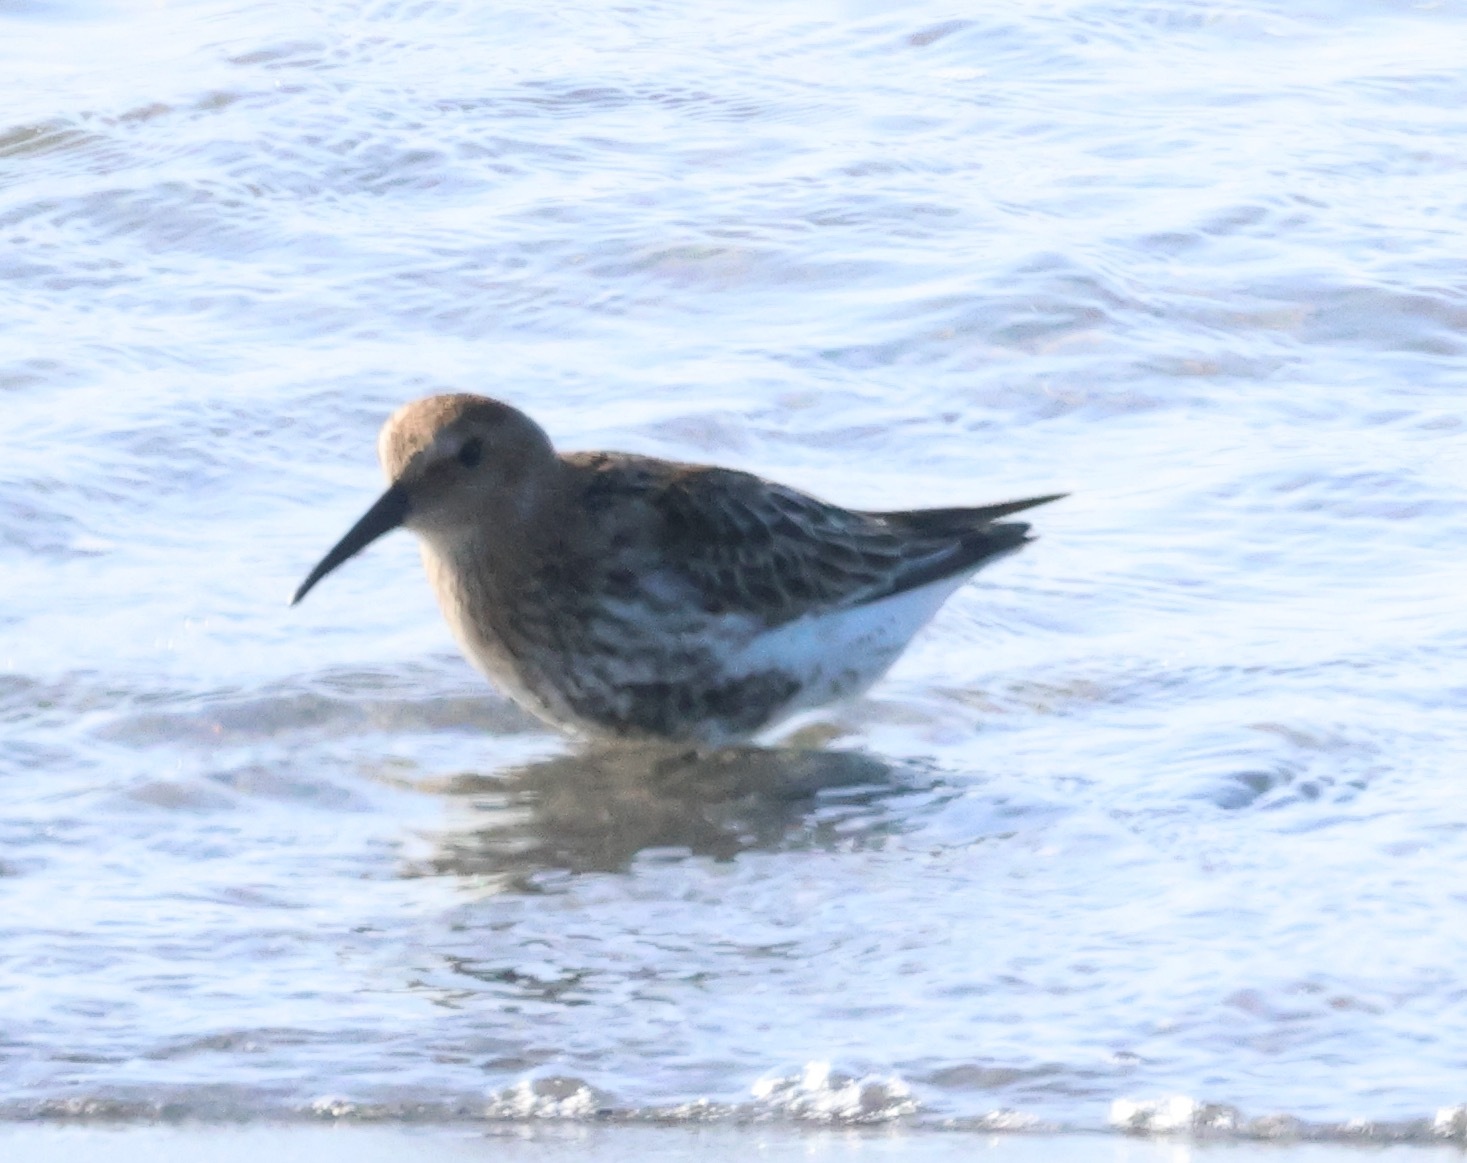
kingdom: Animalia
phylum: Chordata
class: Aves
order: Charadriiformes
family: Scolopacidae
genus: Calidris
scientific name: Calidris alpina
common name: Dunlin
